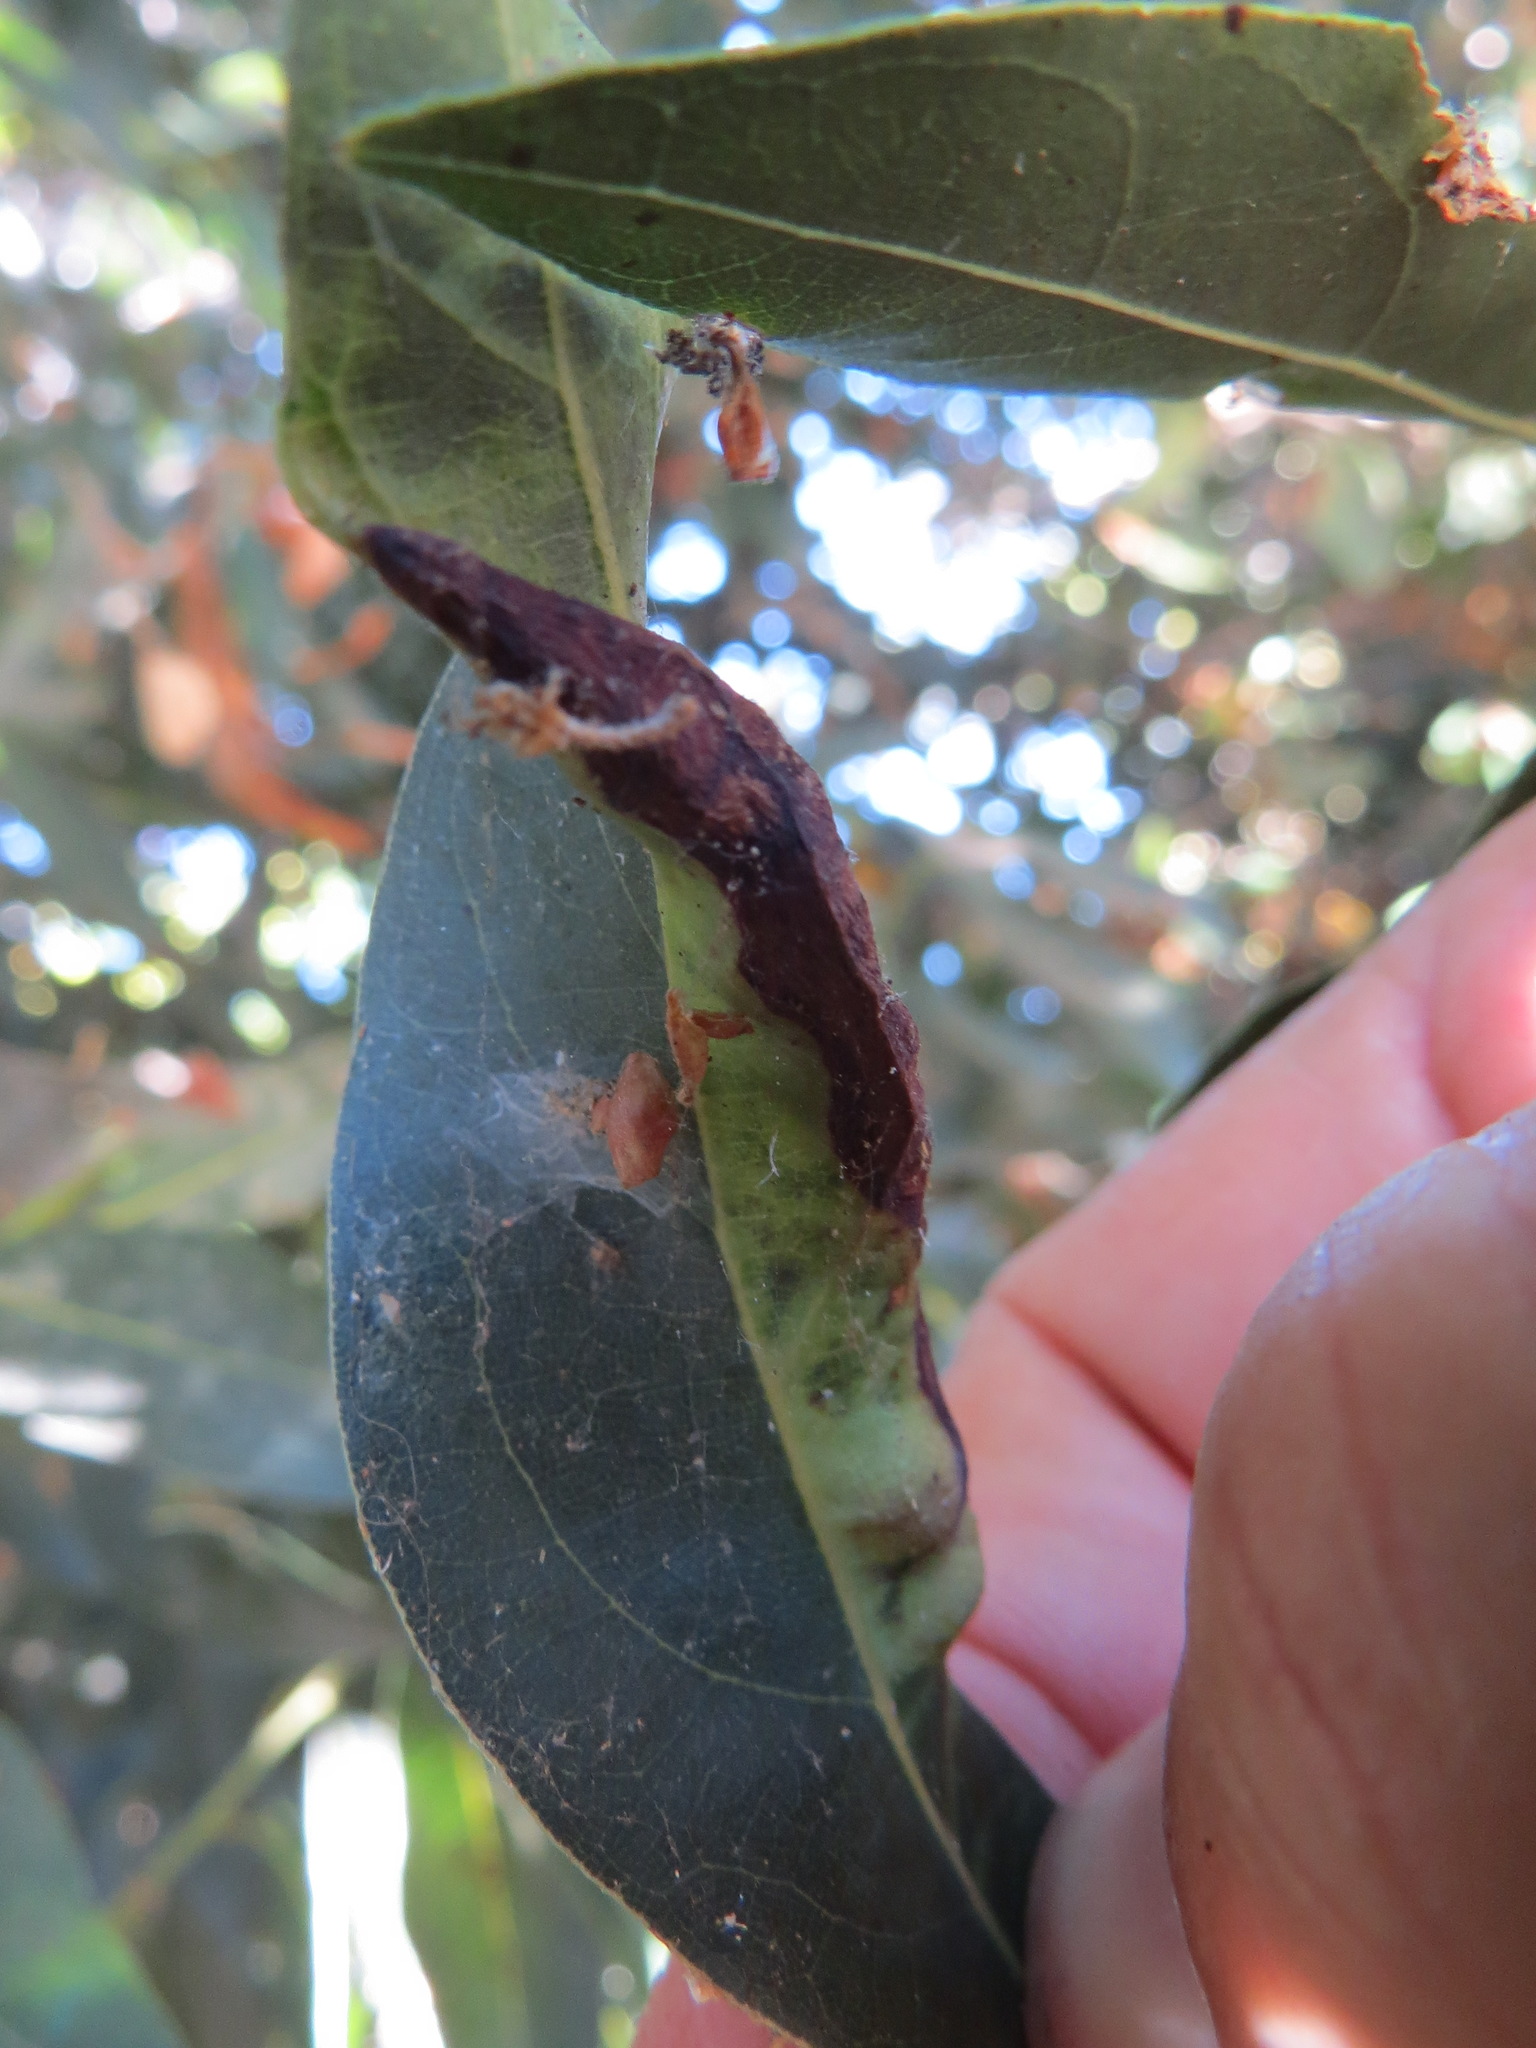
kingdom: Animalia
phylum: Arthropoda
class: Insecta
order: Hemiptera
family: Triozidae
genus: Lauritrioza
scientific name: Lauritrioza alacris
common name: Laurel psyllid
